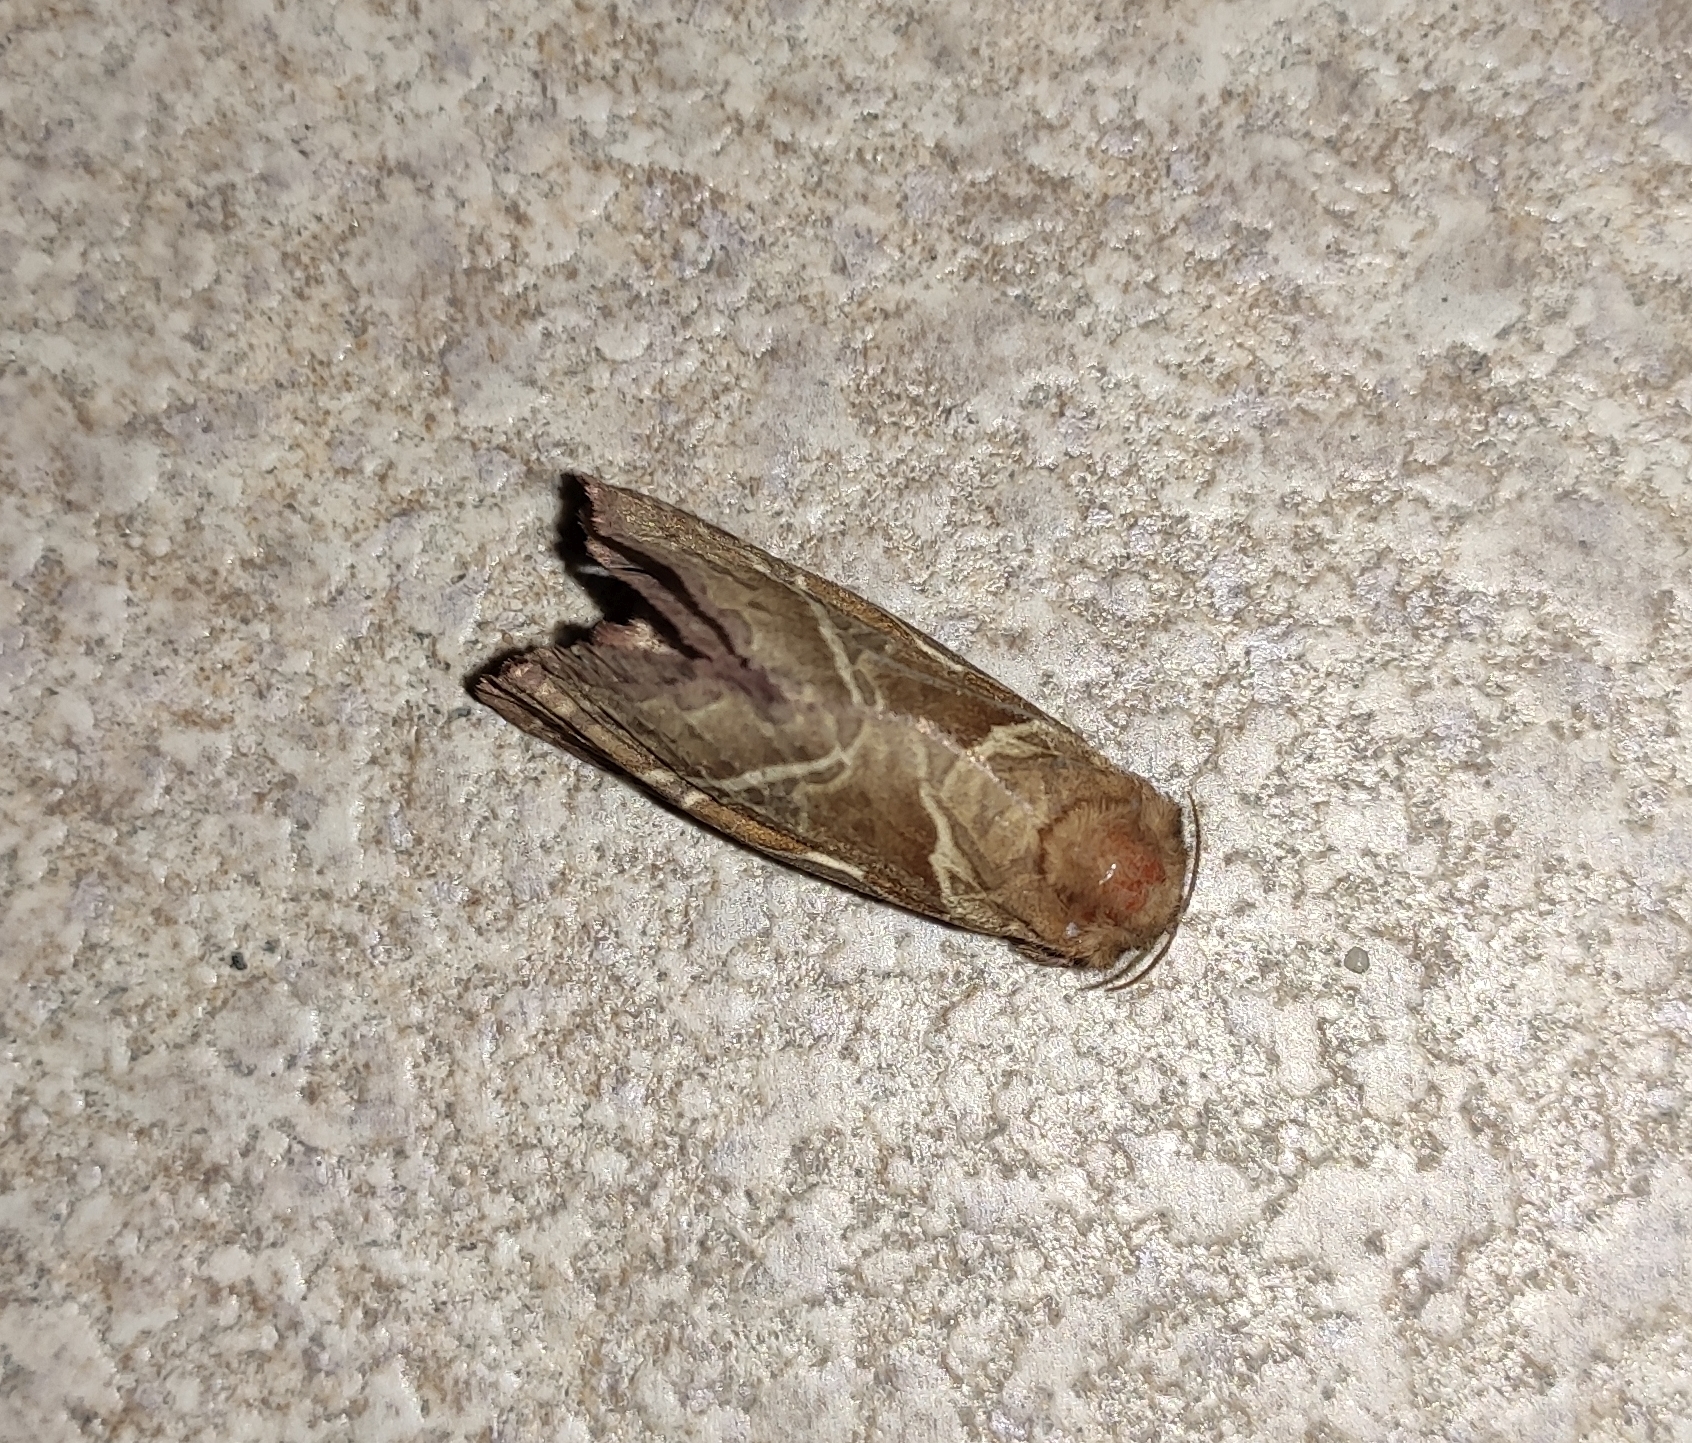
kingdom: Animalia
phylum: Arthropoda
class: Insecta
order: Lepidoptera
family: Hepialidae
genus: Triodia
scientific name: Triodia sylvina
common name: Orange swift
